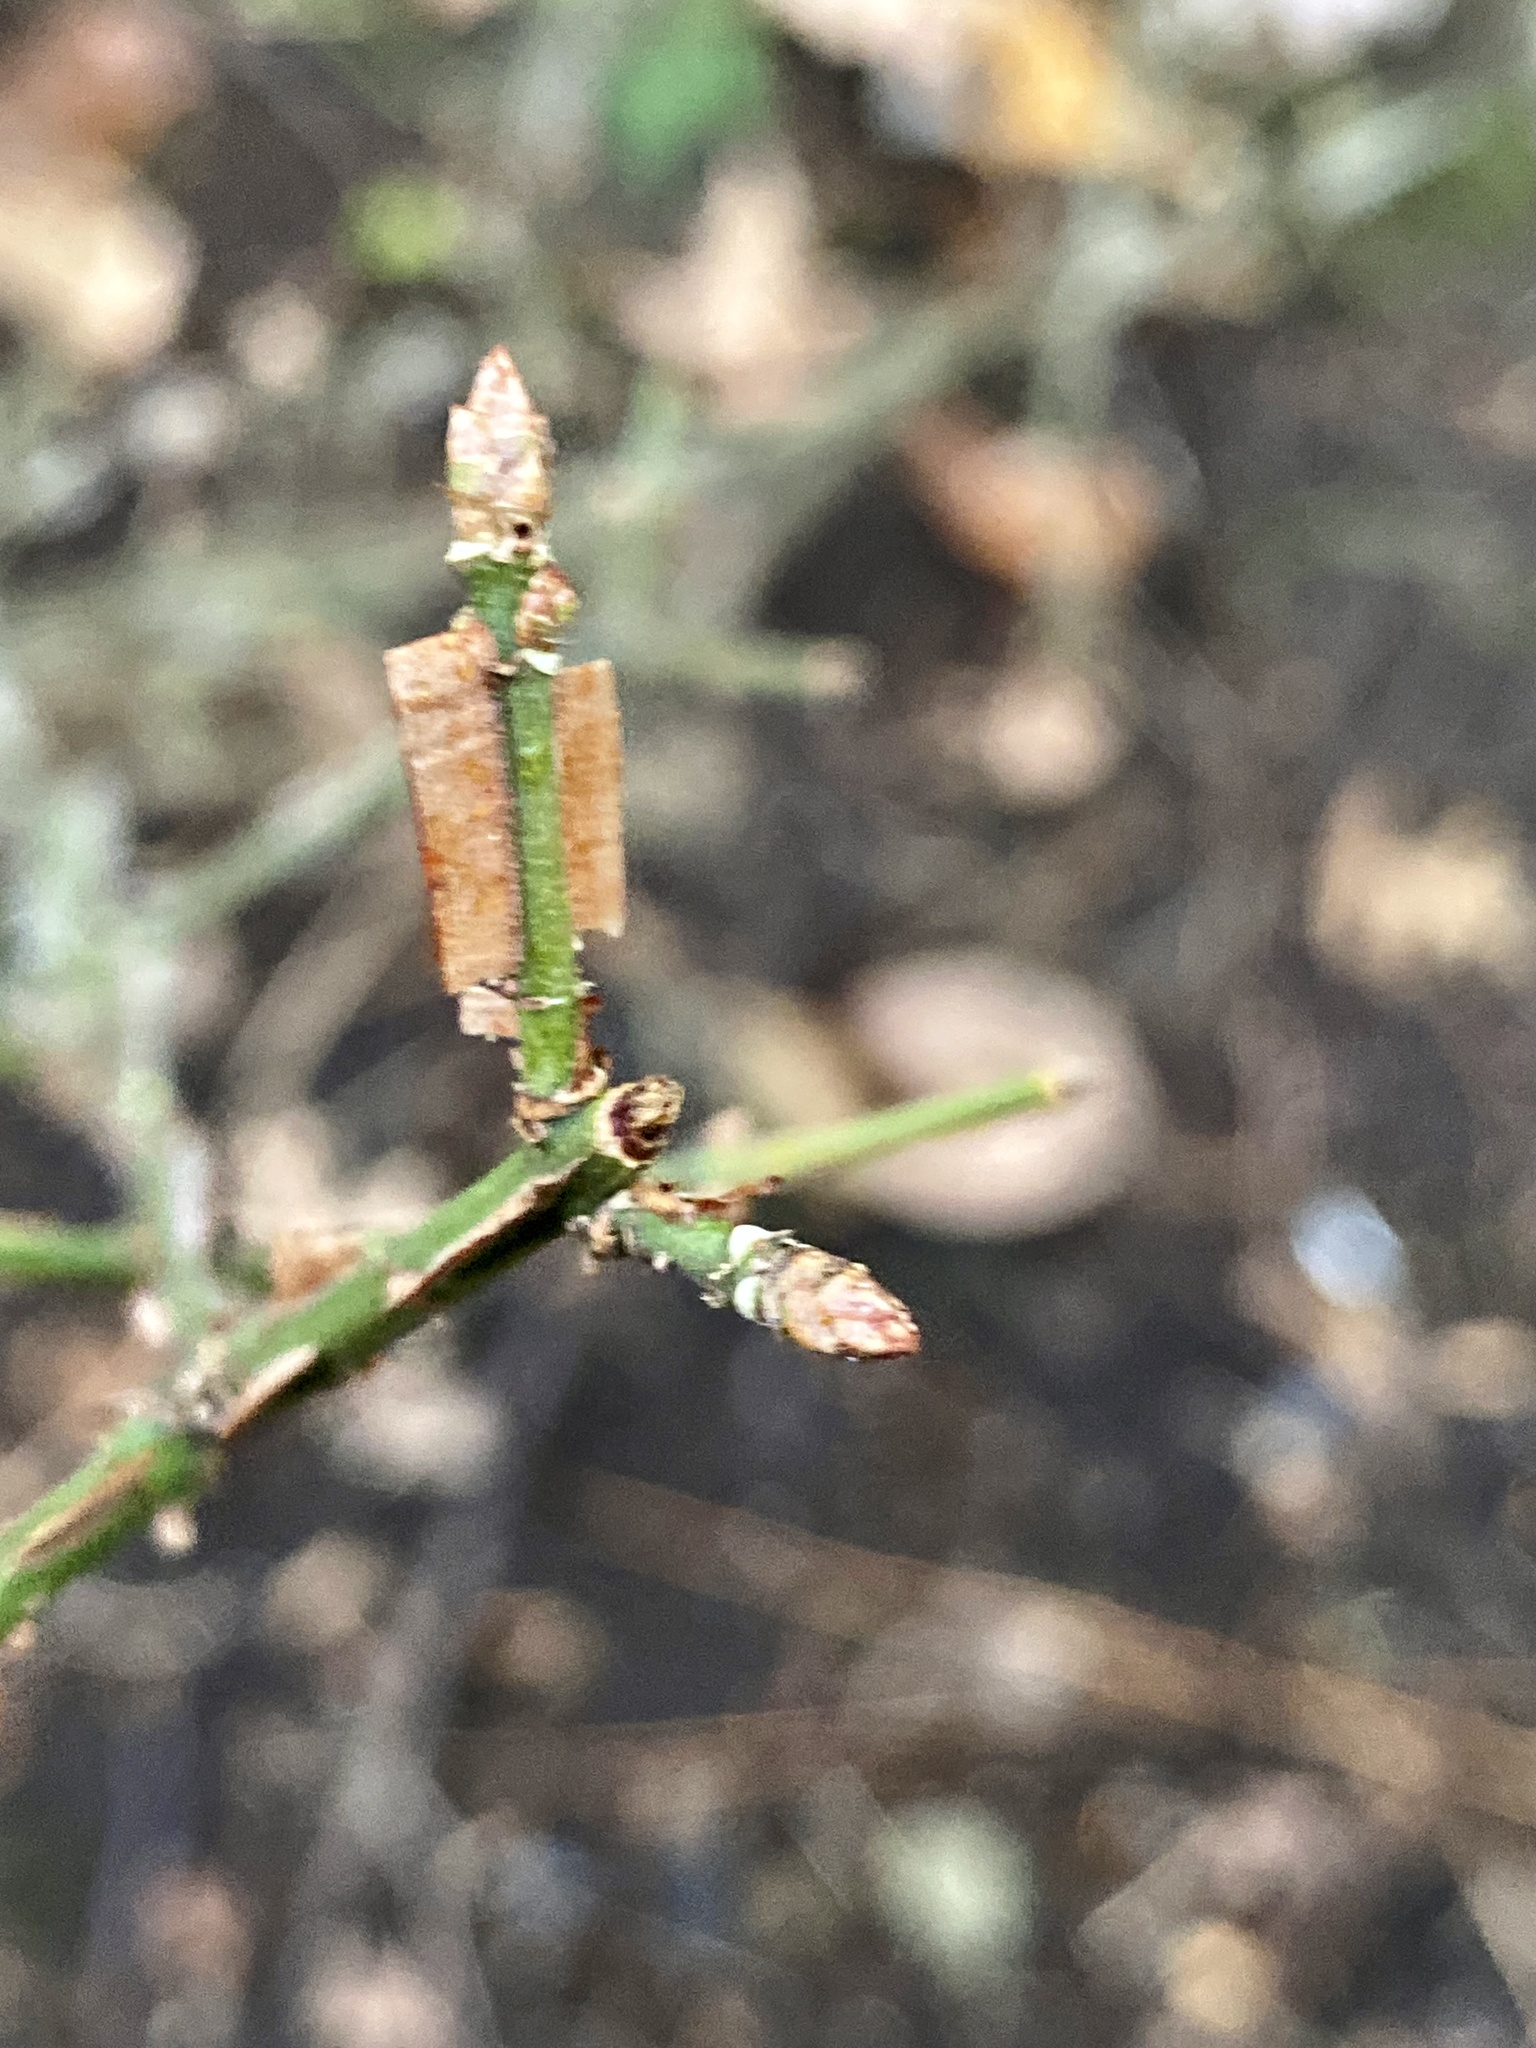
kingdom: Plantae
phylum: Tracheophyta
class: Magnoliopsida
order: Celastrales
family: Celastraceae
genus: Euonymus
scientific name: Euonymus alatus
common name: Winged euonymus
